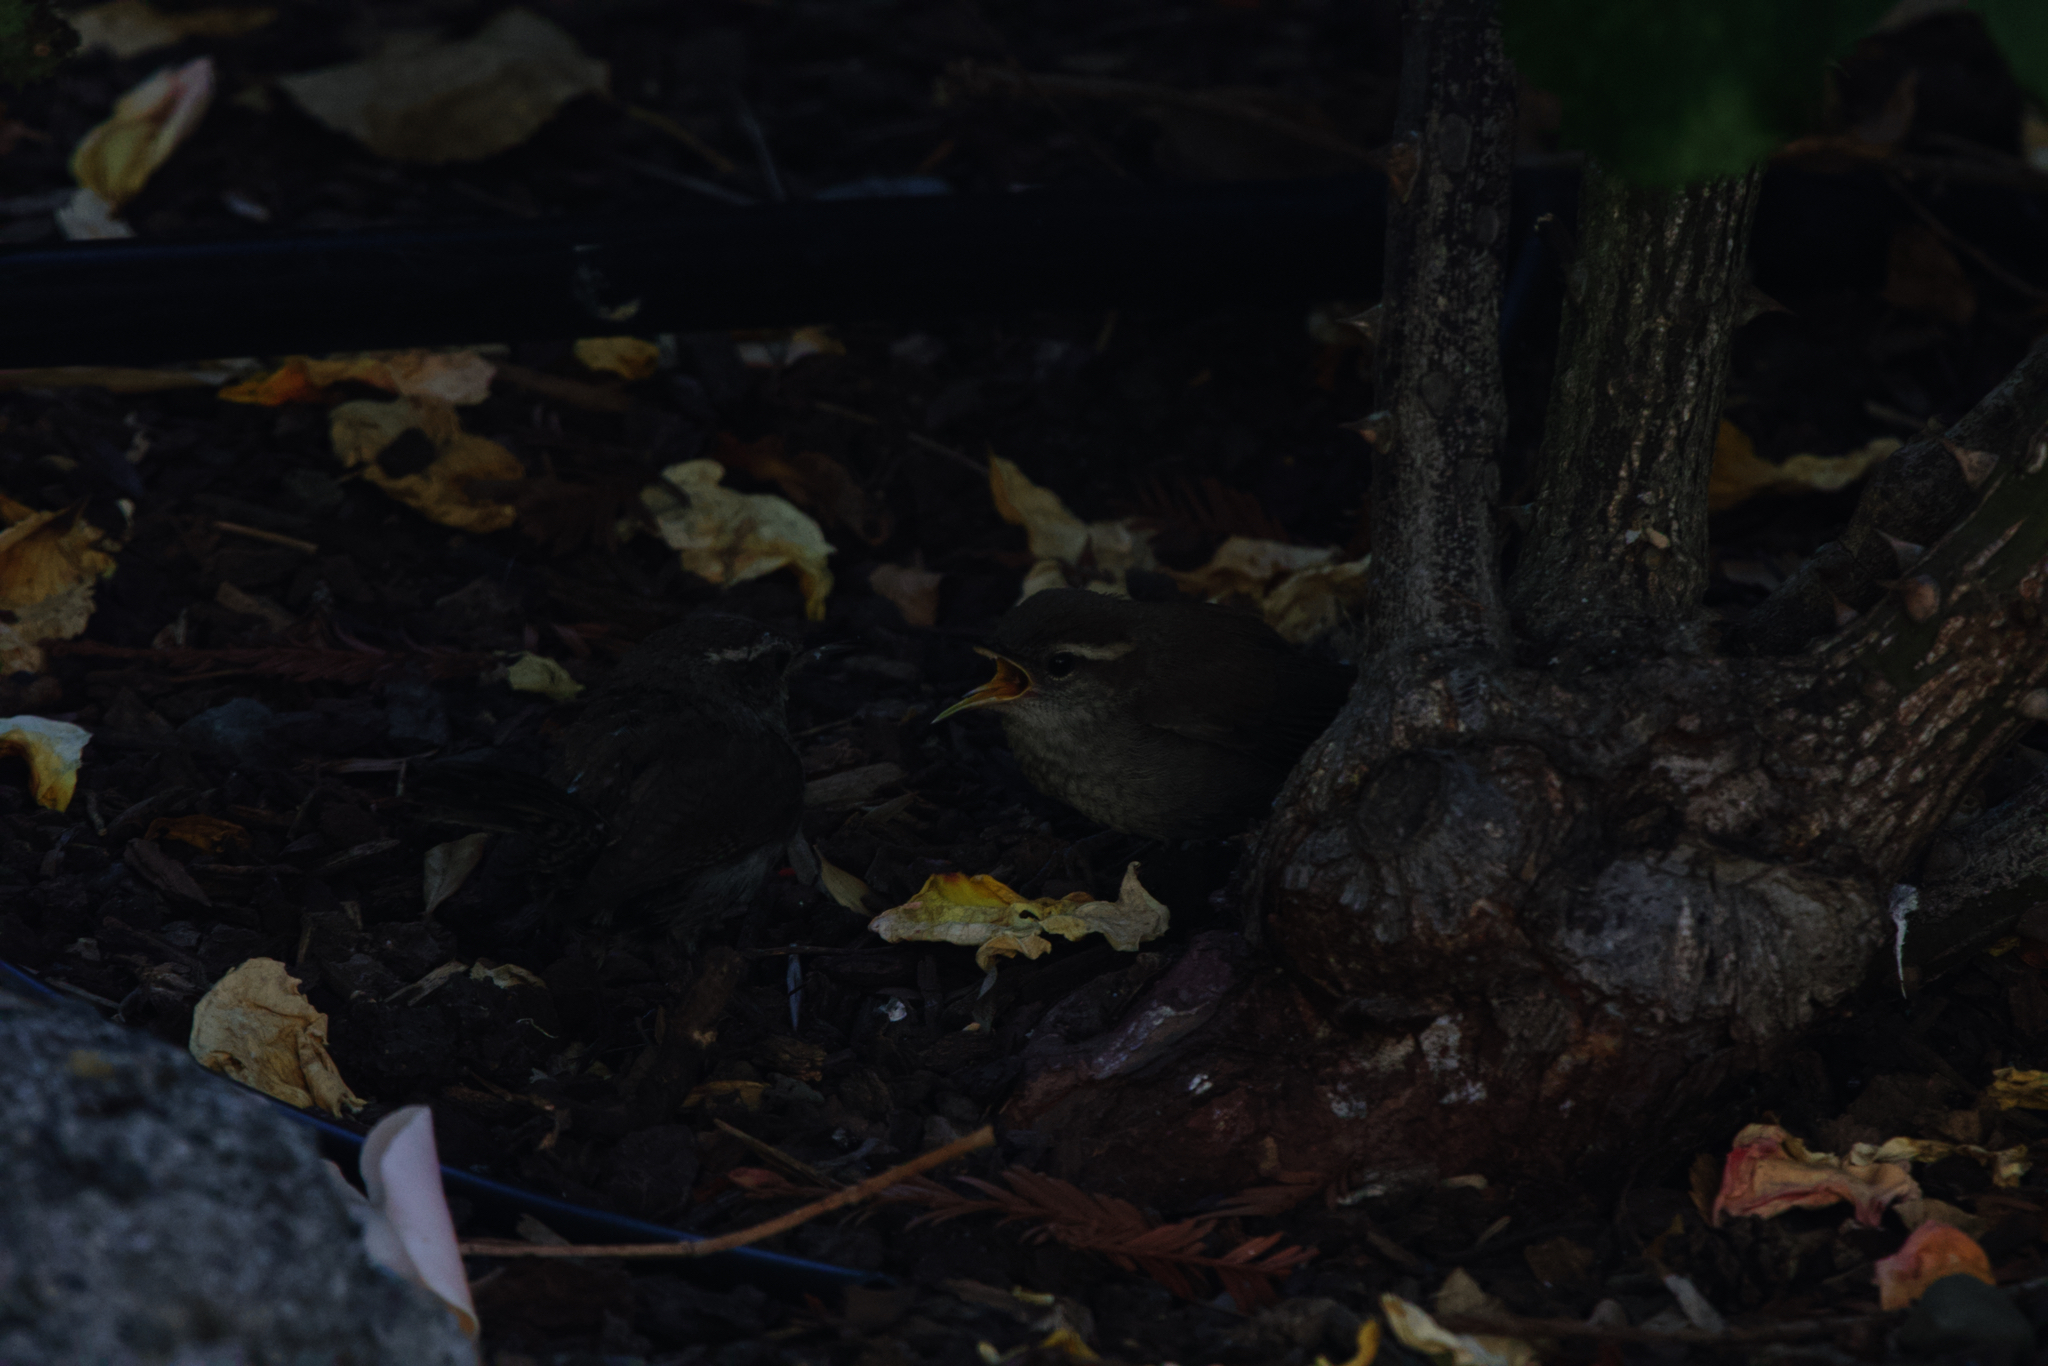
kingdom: Animalia
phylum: Chordata
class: Aves
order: Passeriformes
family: Troglodytidae
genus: Thryomanes
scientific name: Thryomanes bewickii
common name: Bewick's wren
